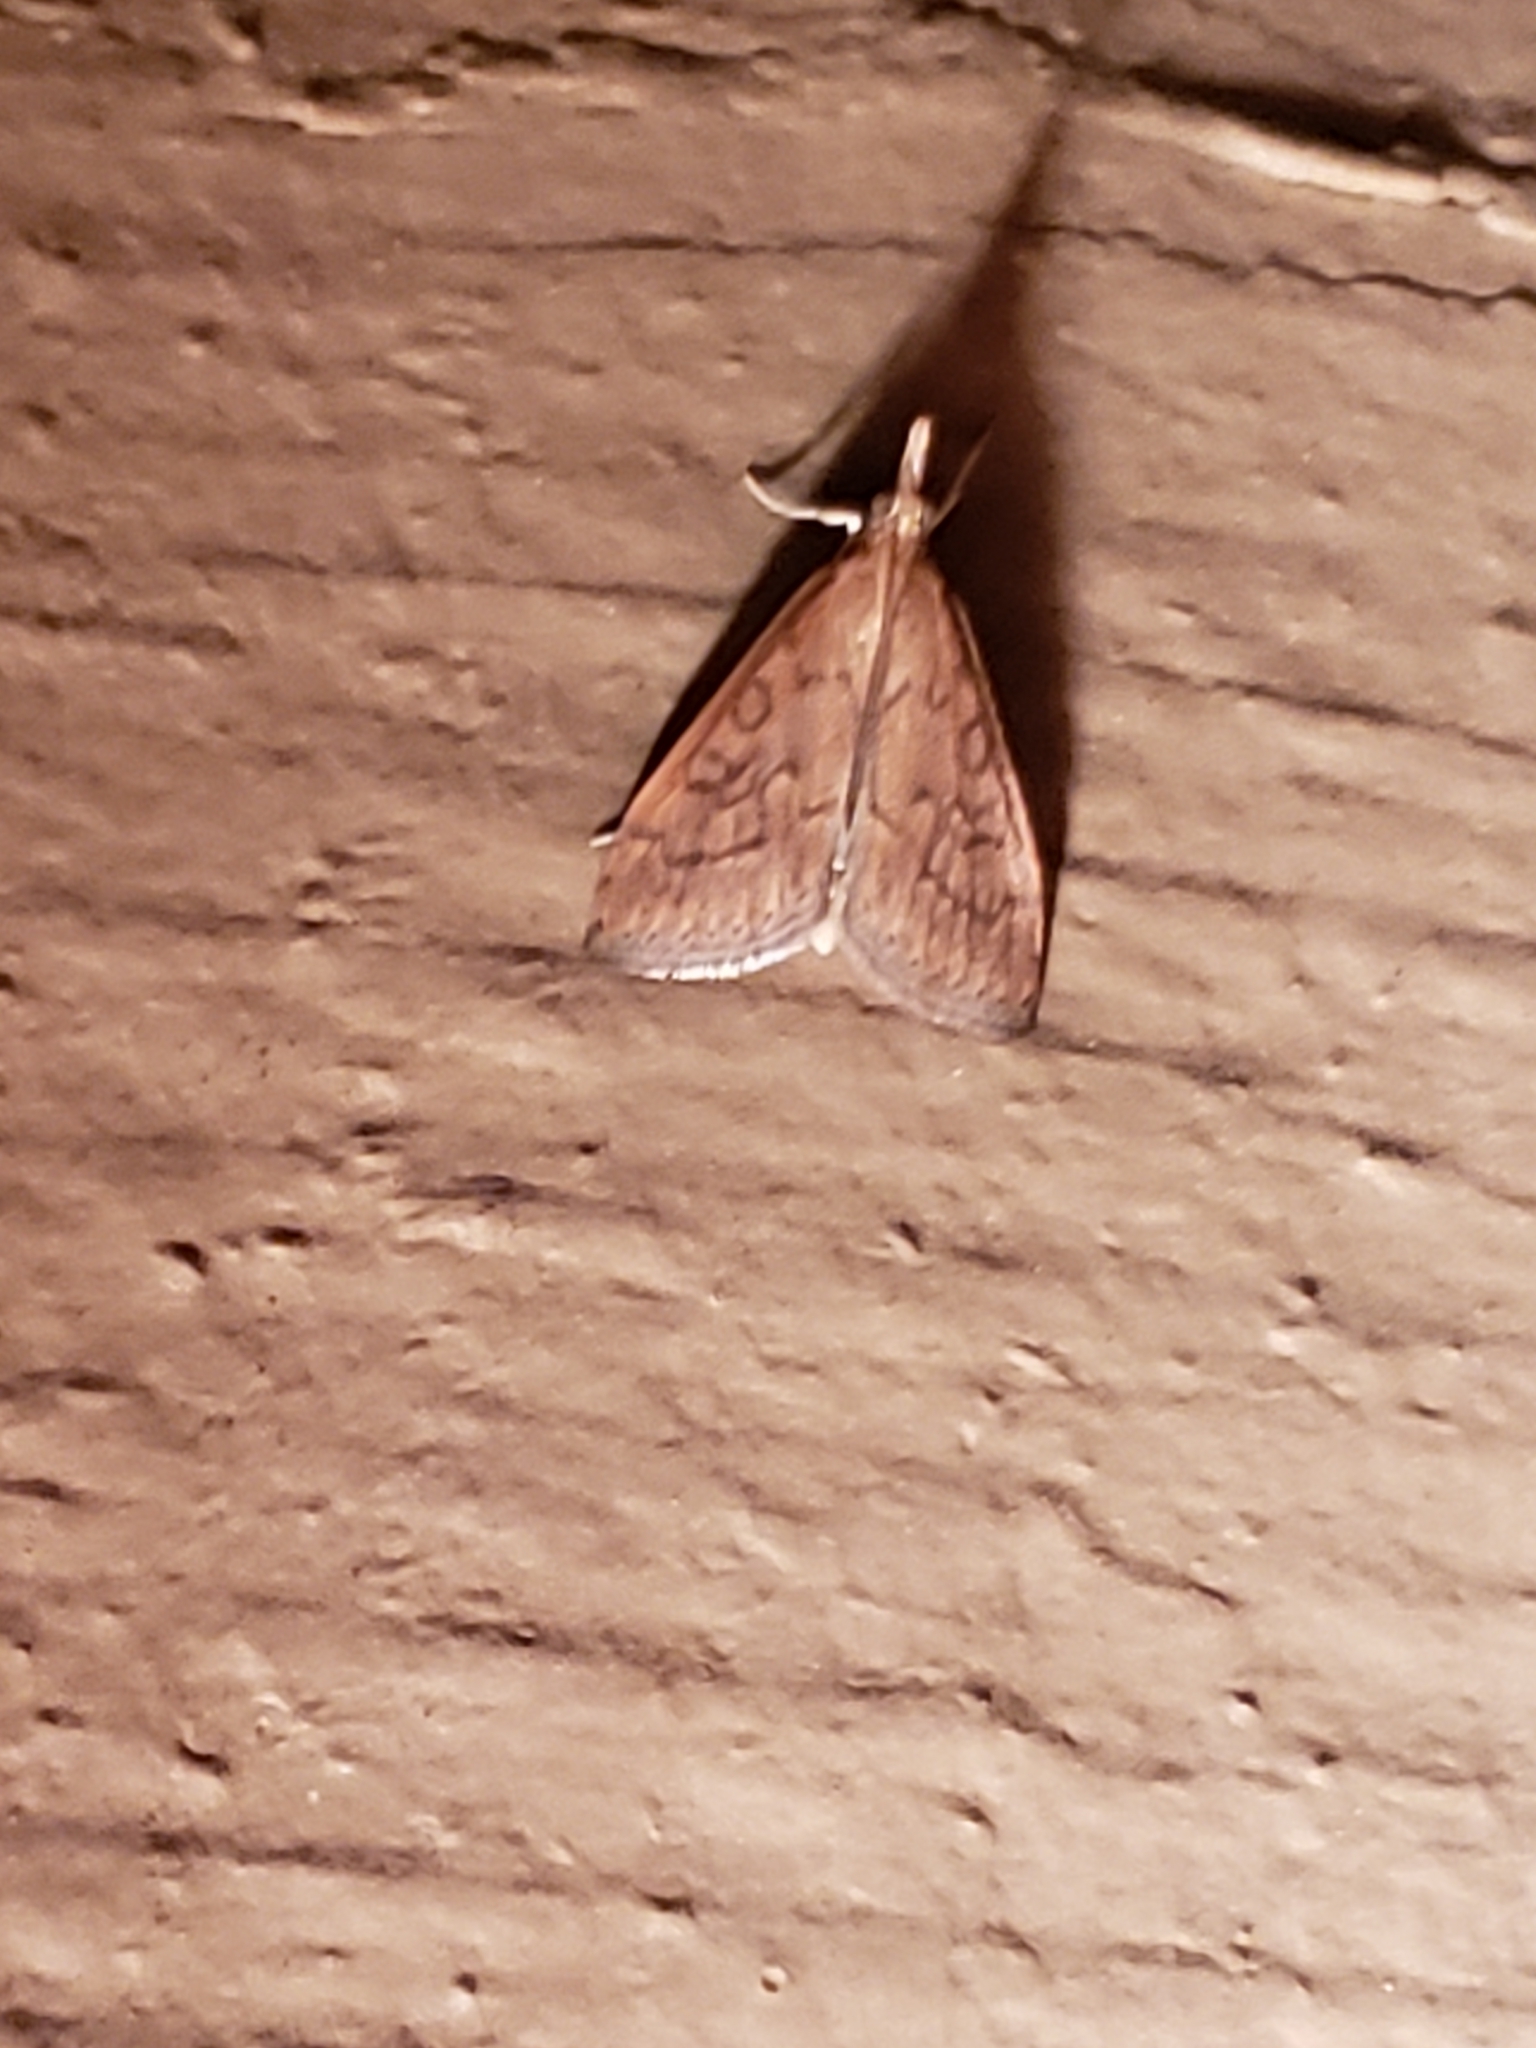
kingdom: Animalia
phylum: Arthropoda
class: Insecta
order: Lepidoptera
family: Crambidae
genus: Udea
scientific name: Udea rubigalis
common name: Celery leaftier moth
